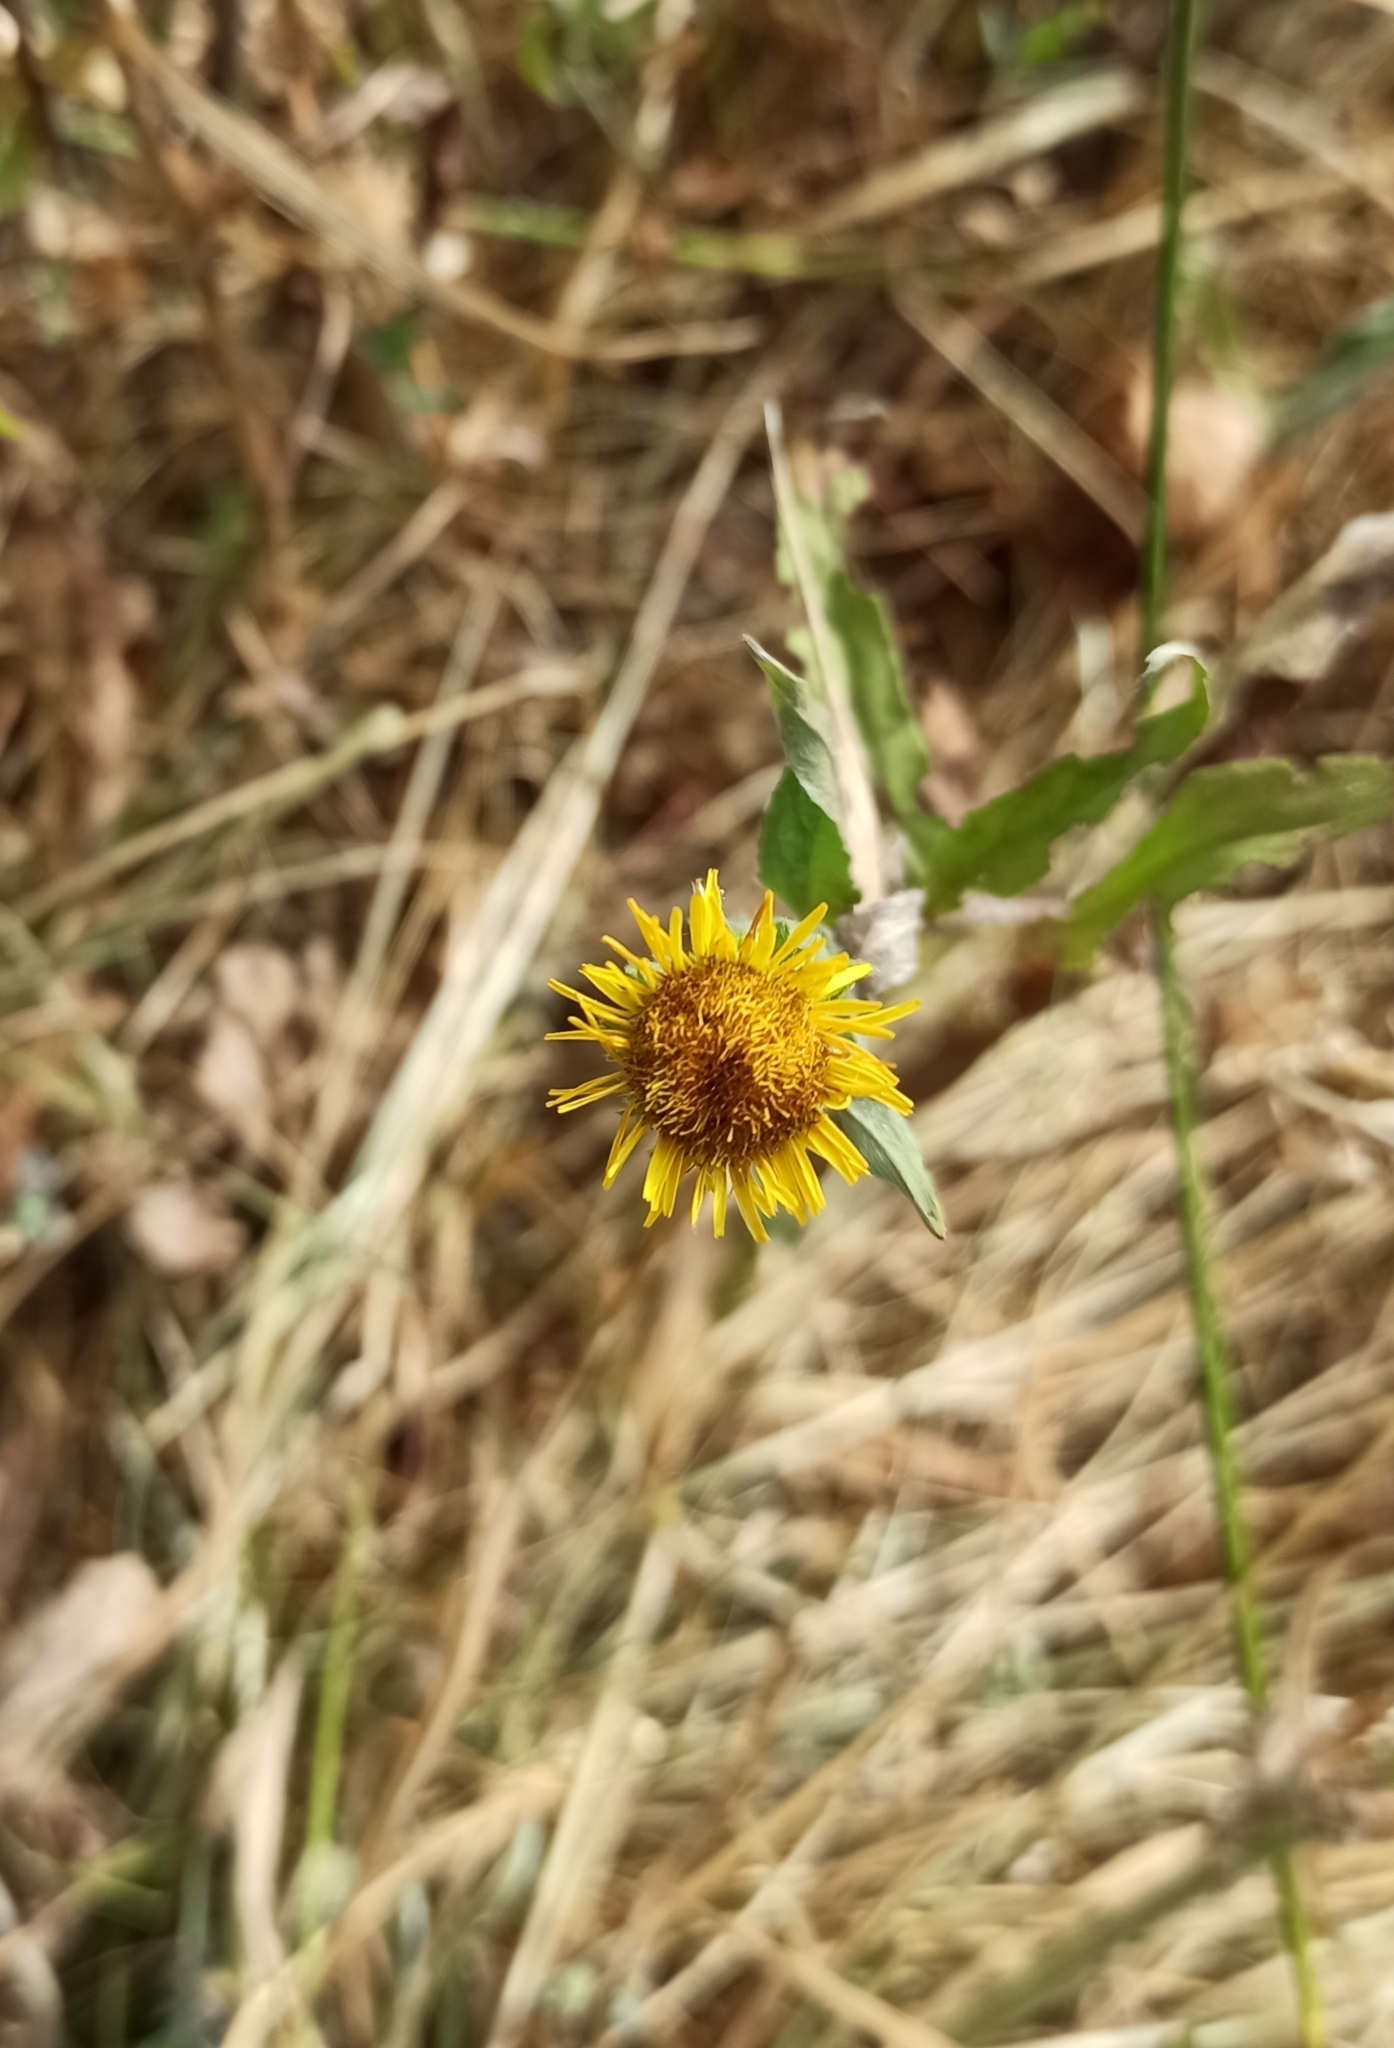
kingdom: Plantae
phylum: Tracheophyta
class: Magnoliopsida
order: Asterales
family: Asteraceae
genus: Pentanema
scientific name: Pentanema britannicum
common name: British elecampane
